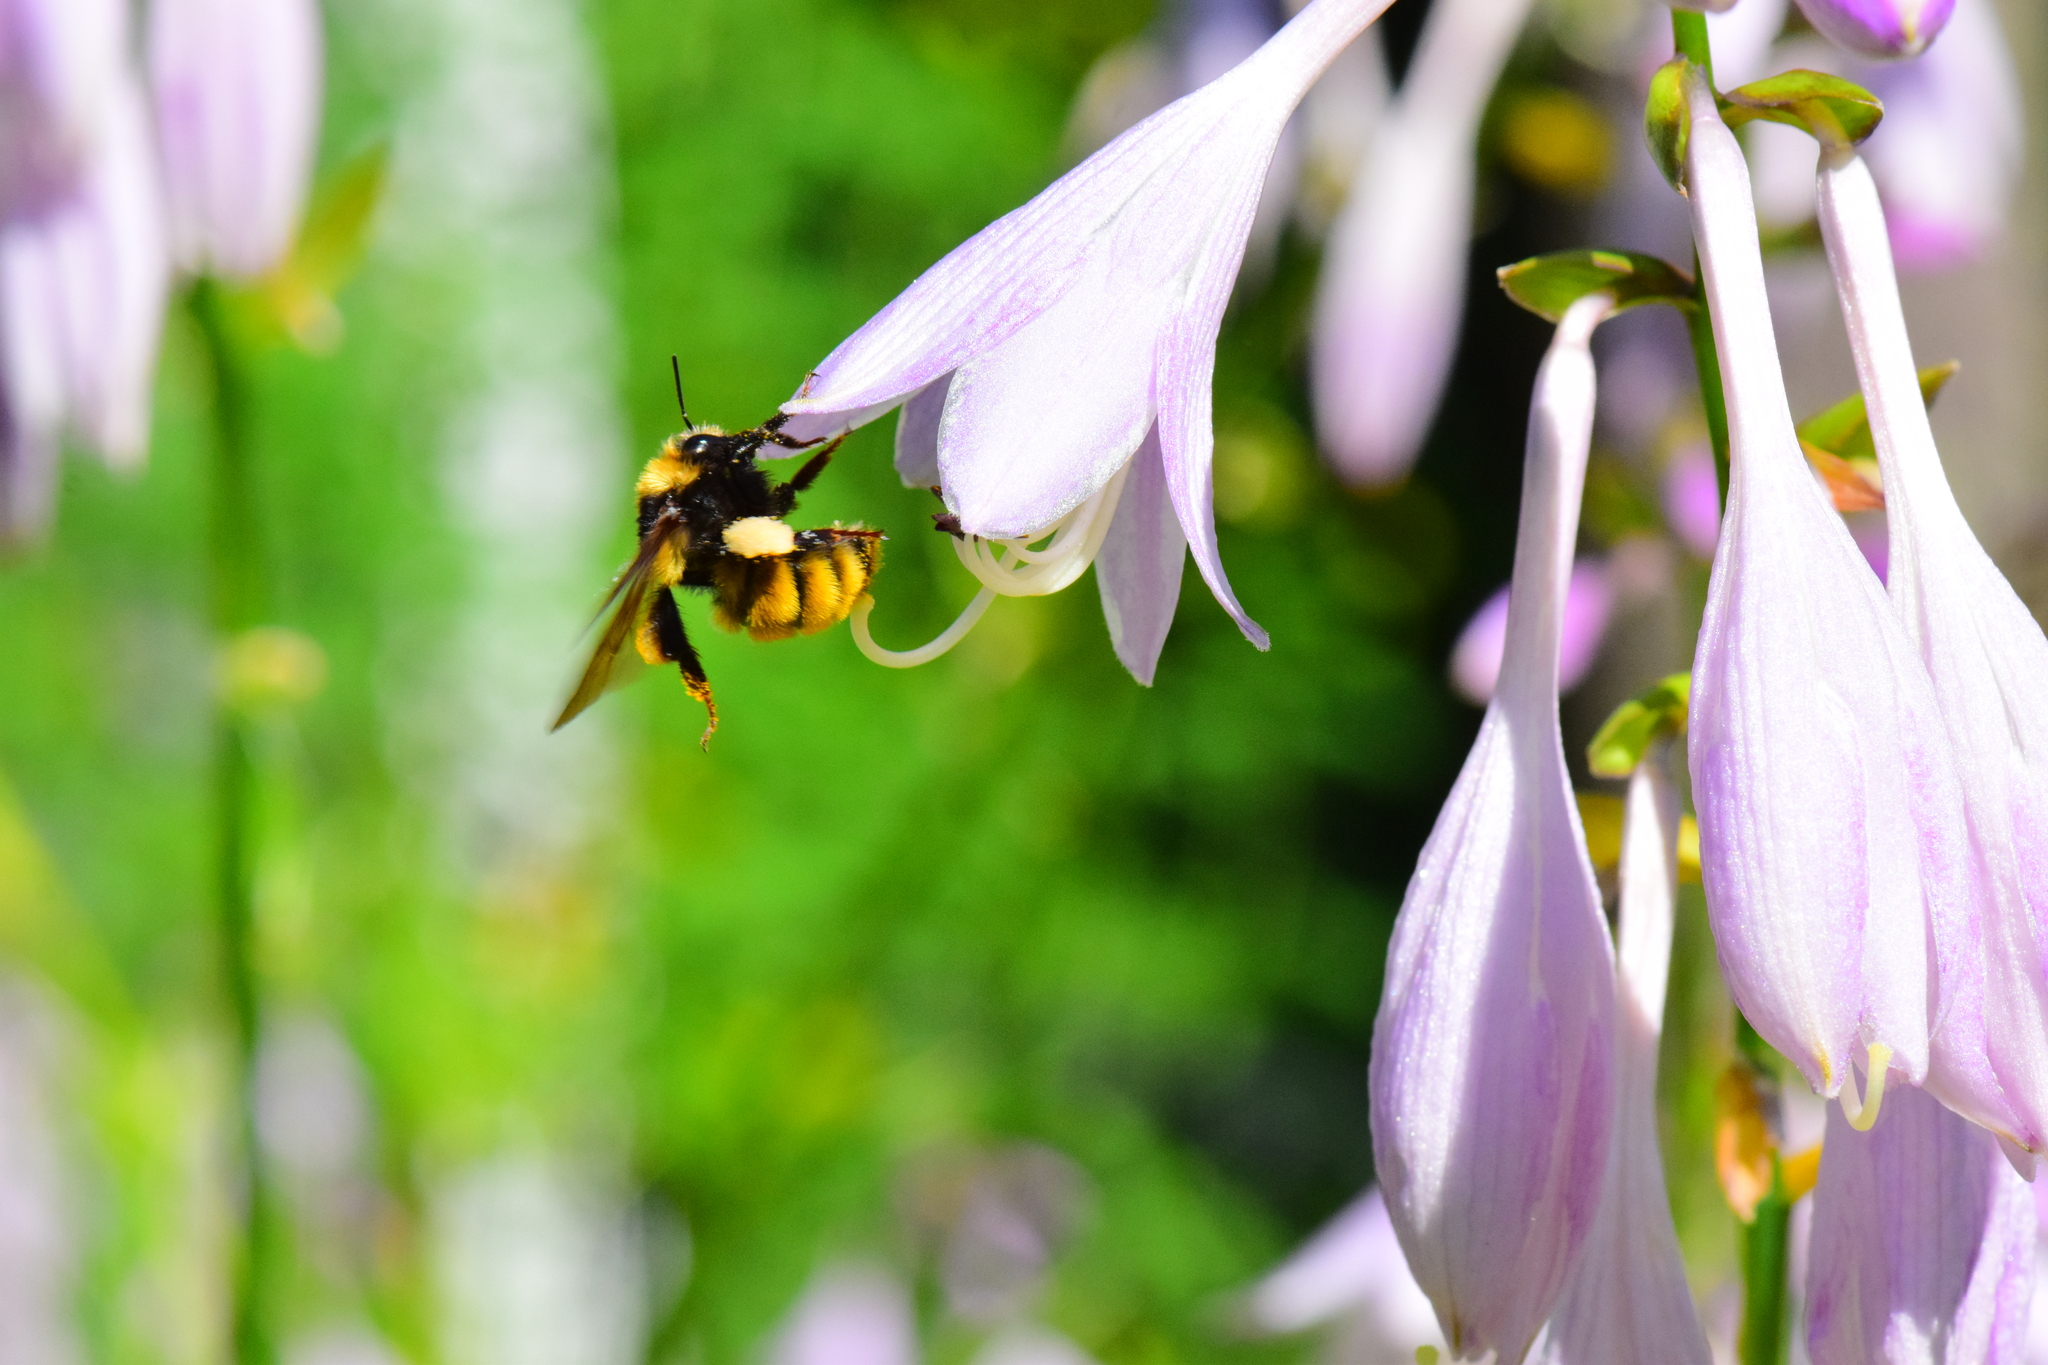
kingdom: Animalia
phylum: Arthropoda
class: Insecta
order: Hymenoptera
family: Apidae
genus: Bombus
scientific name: Bombus borealis
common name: Northern amber bumble bee
